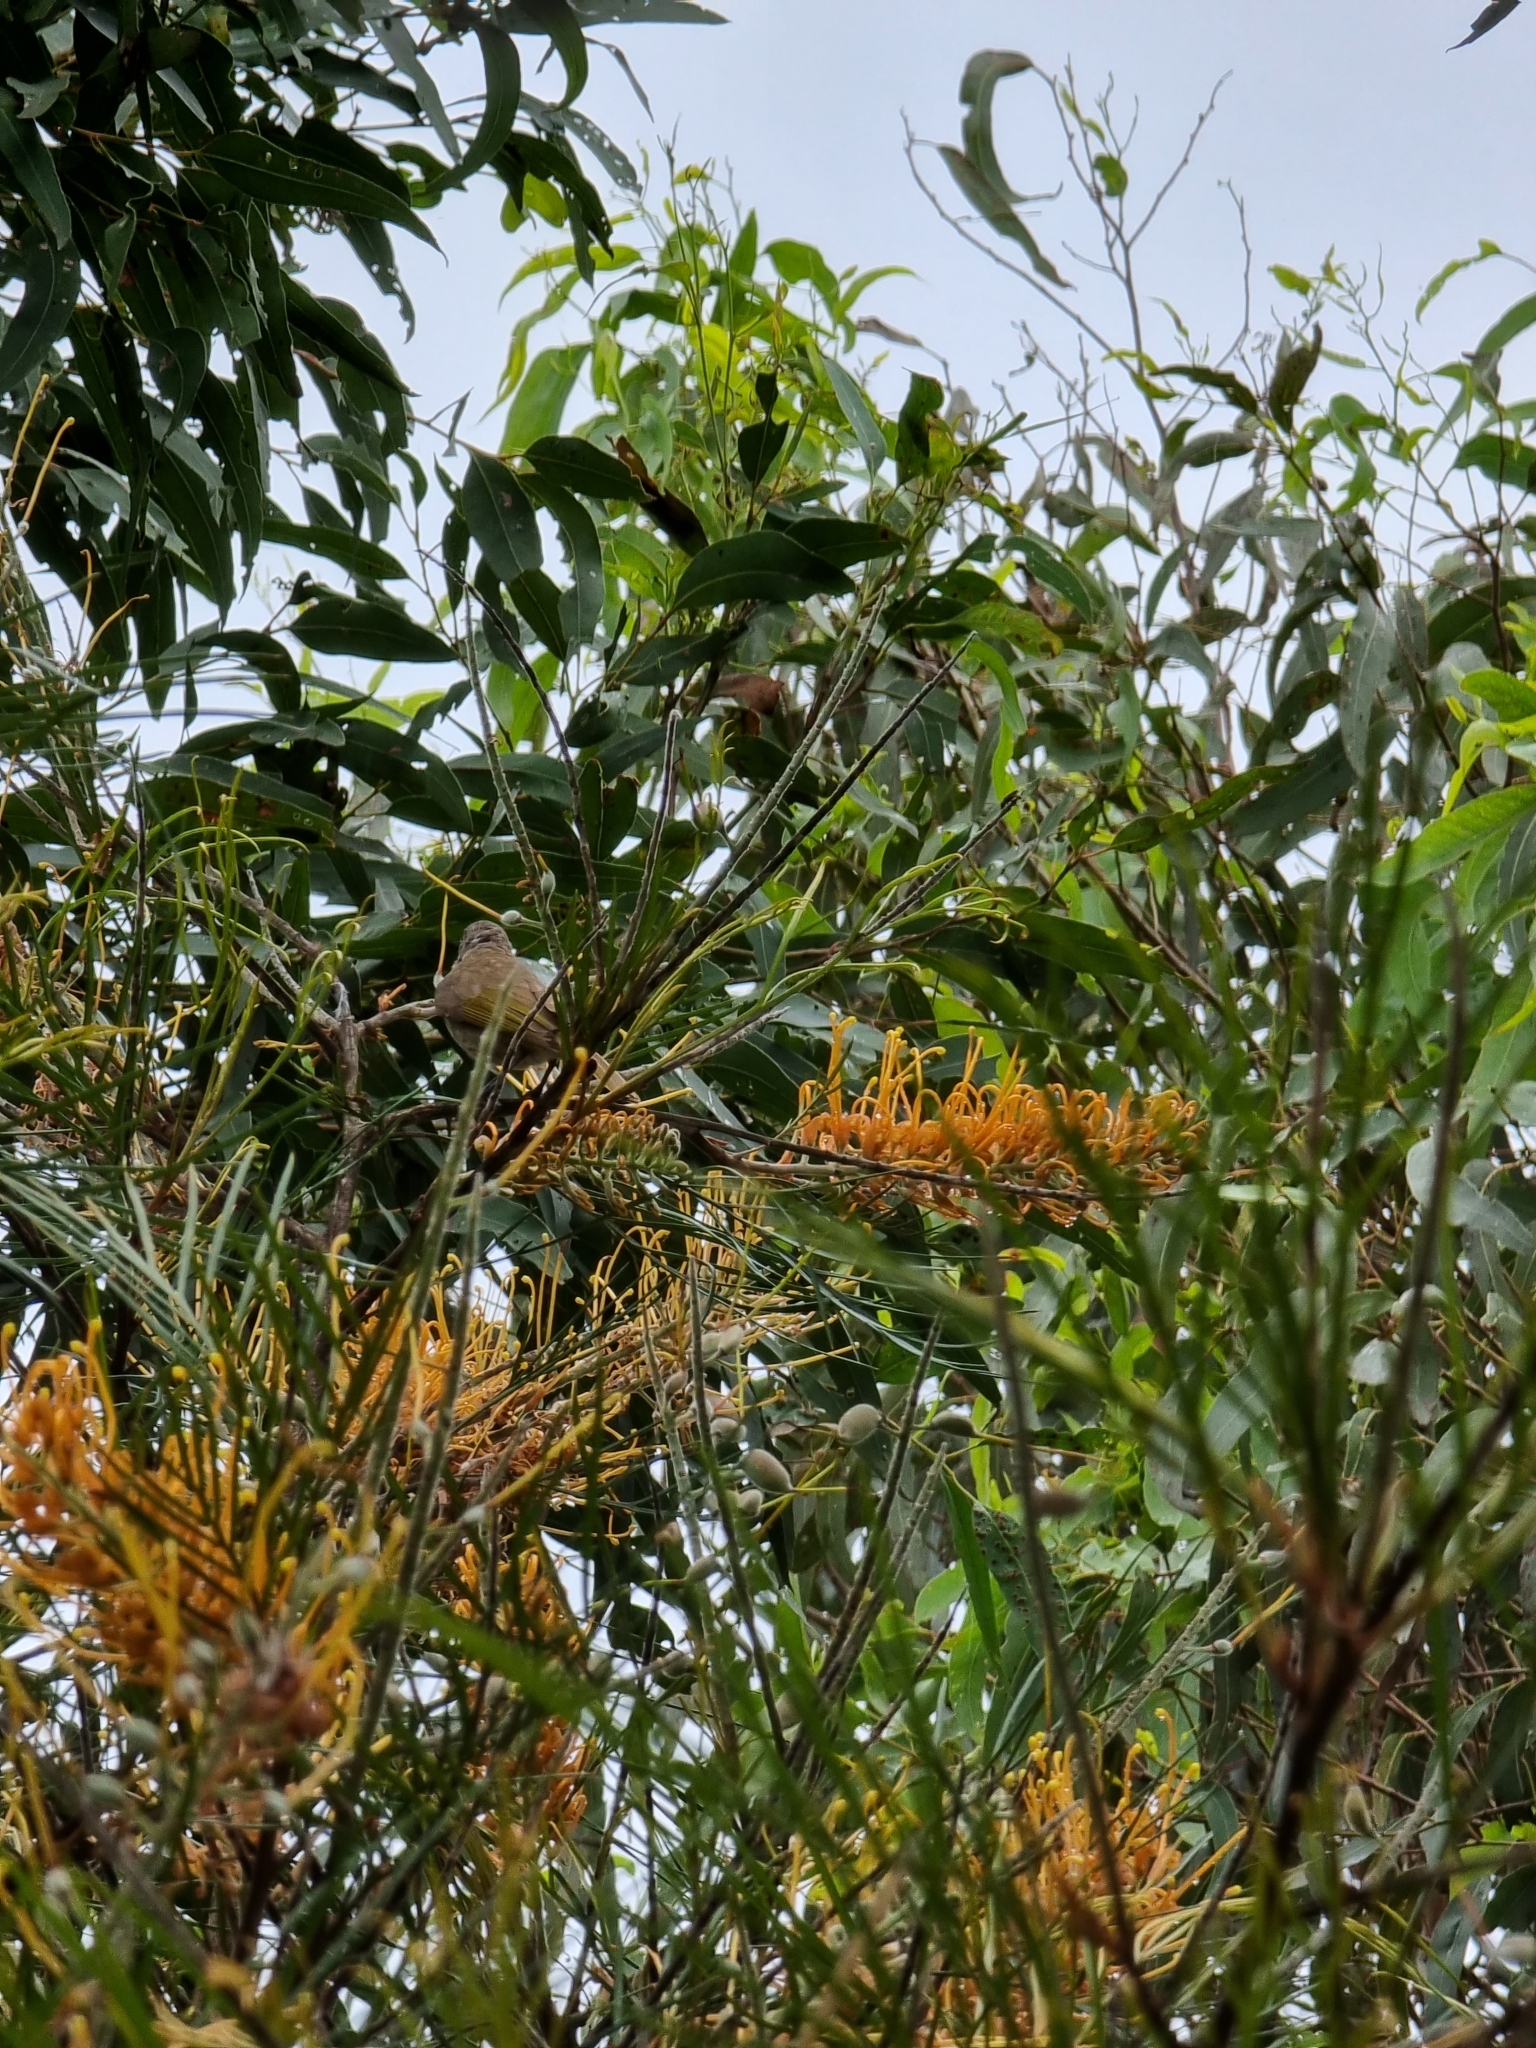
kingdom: Animalia
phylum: Chordata
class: Aves
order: Passeriformes
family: Meliphagidae
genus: Lichmera
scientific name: Lichmera indistincta
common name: Brown honeyeater
